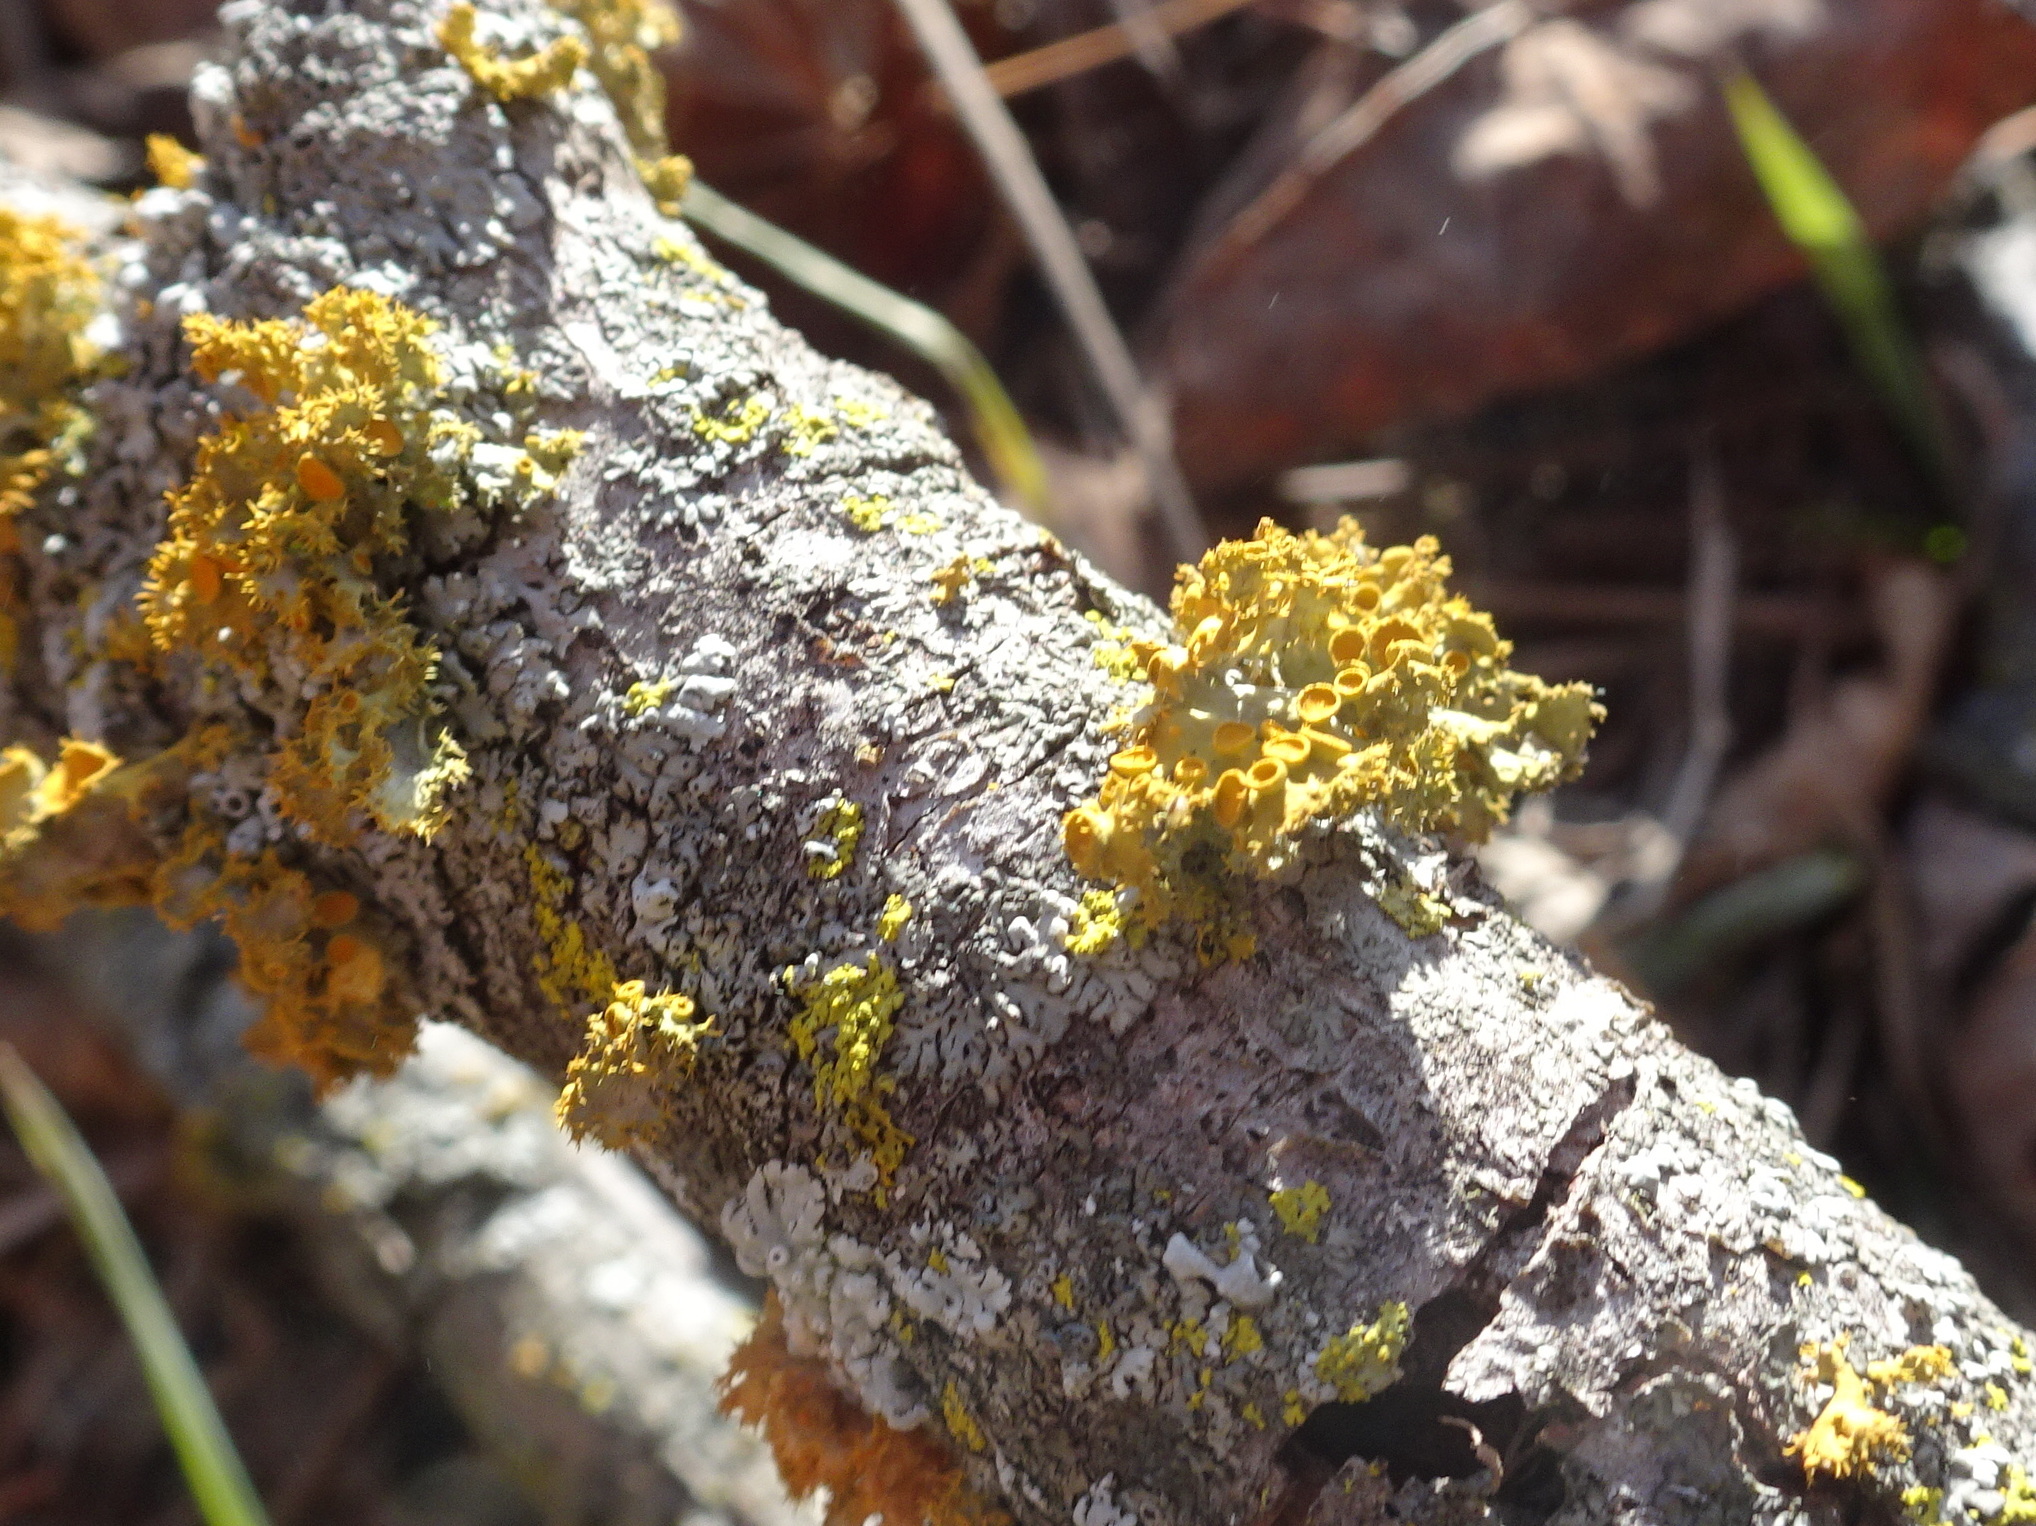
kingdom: Fungi
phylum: Ascomycota
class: Lecanoromycetes
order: Teloschistales
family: Teloschistaceae
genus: Niorma
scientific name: Niorma chrysophthalma
